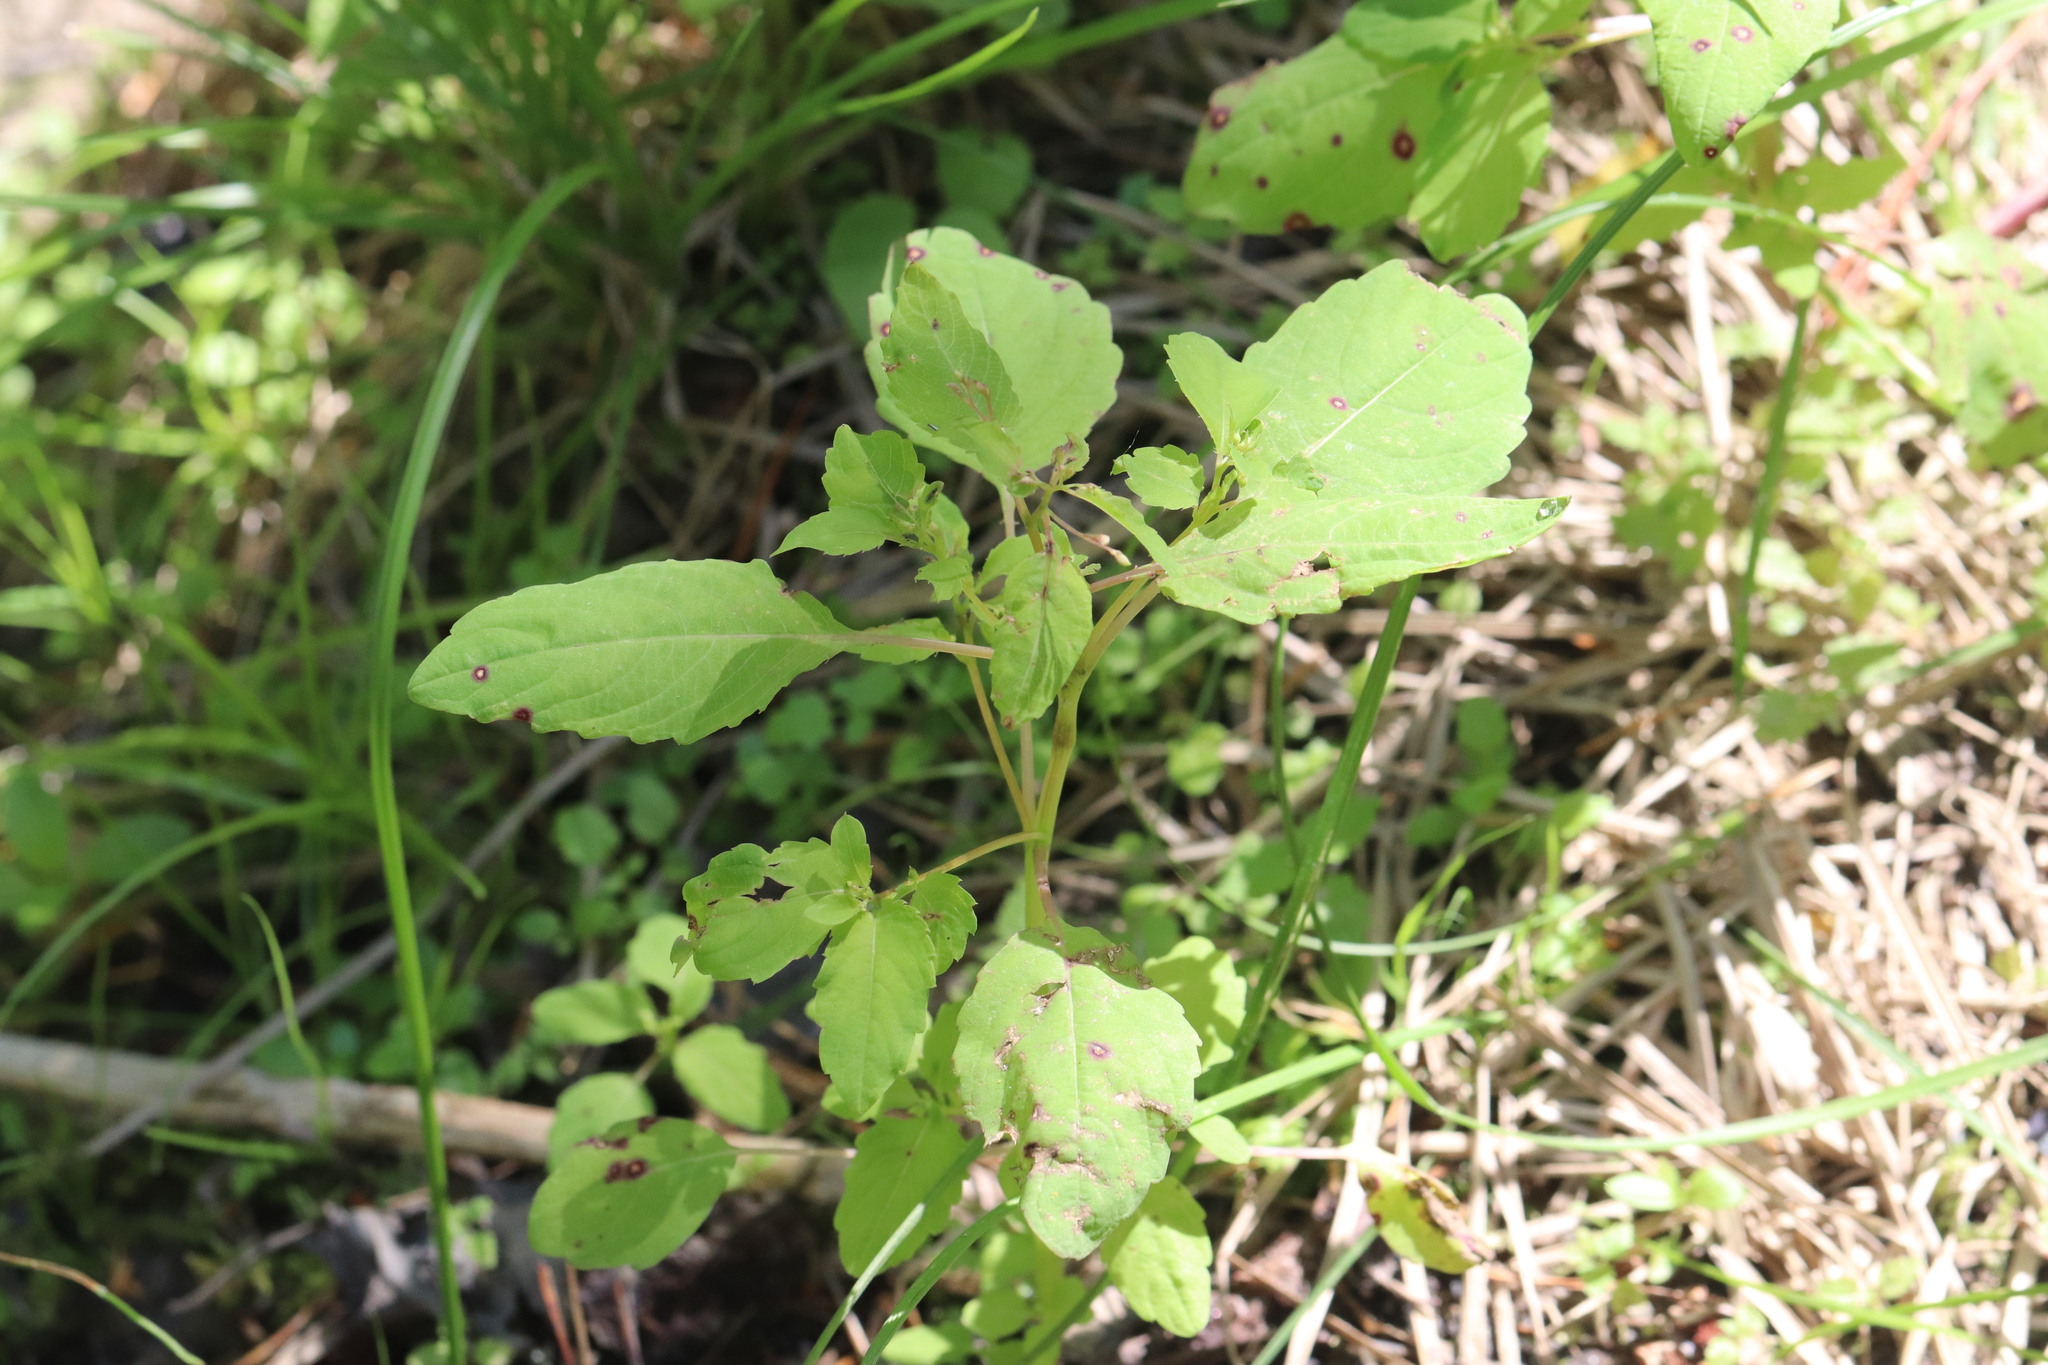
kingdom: Plantae
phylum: Tracheophyta
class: Magnoliopsida
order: Ericales
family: Balsaminaceae
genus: Impatiens
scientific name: Impatiens noli-tangere
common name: Touch-me-not balsam
